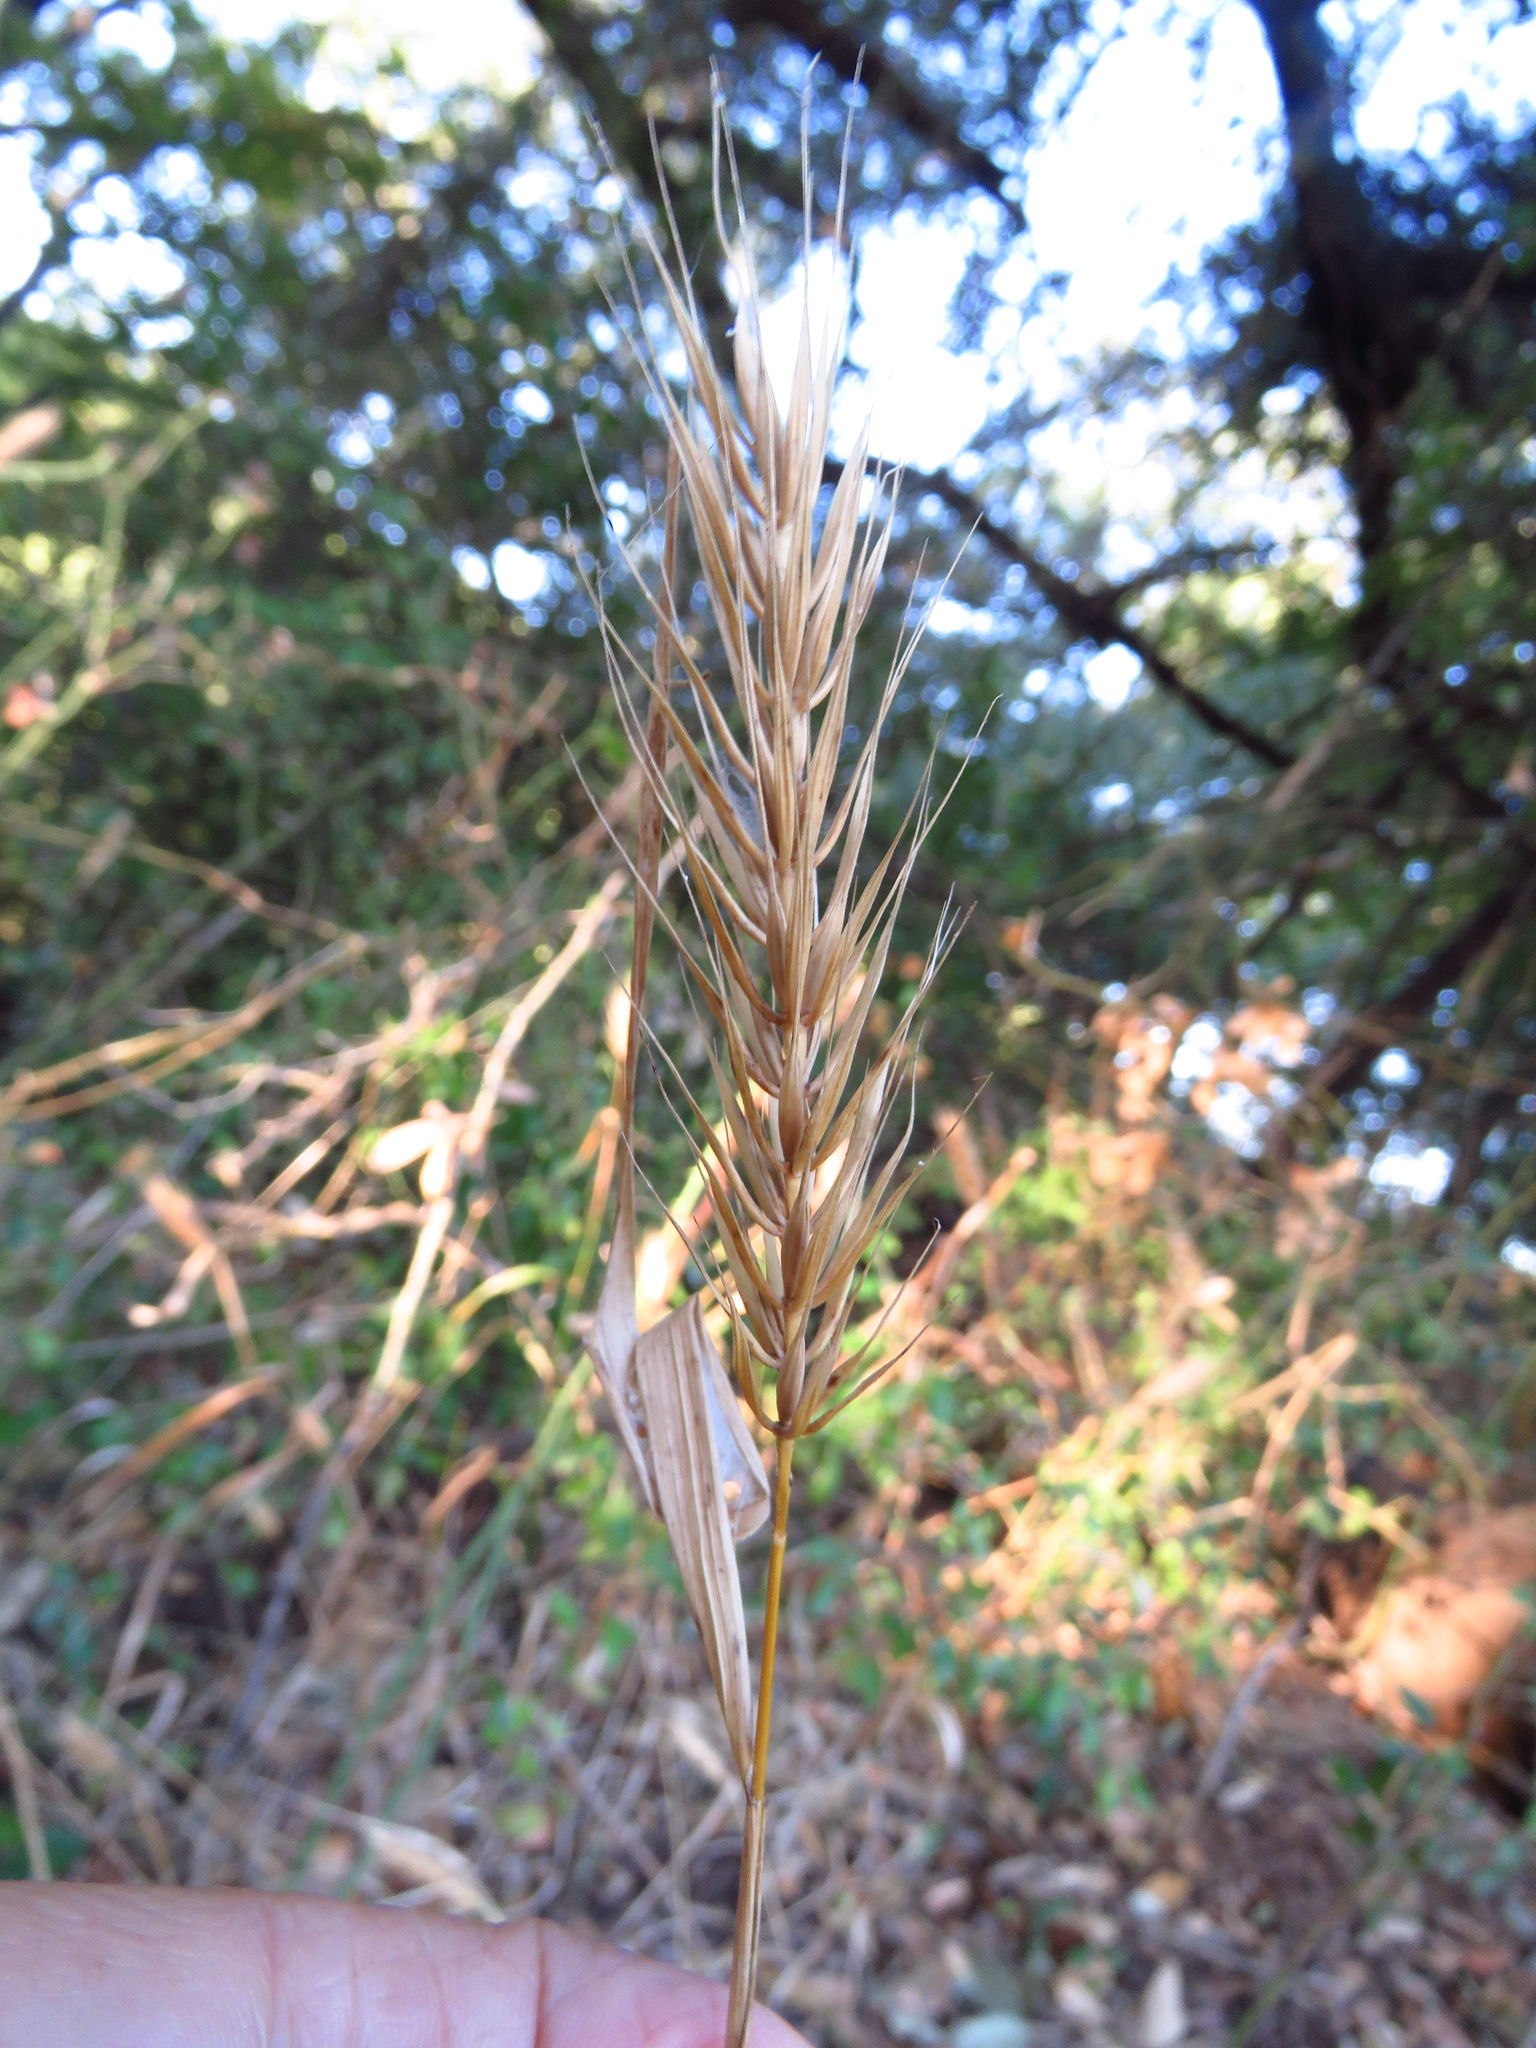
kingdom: Plantae
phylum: Tracheophyta
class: Liliopsida
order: Poales
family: Poaceae
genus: Elymus
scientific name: Elymus virginicus
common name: Common eastern wildrye
